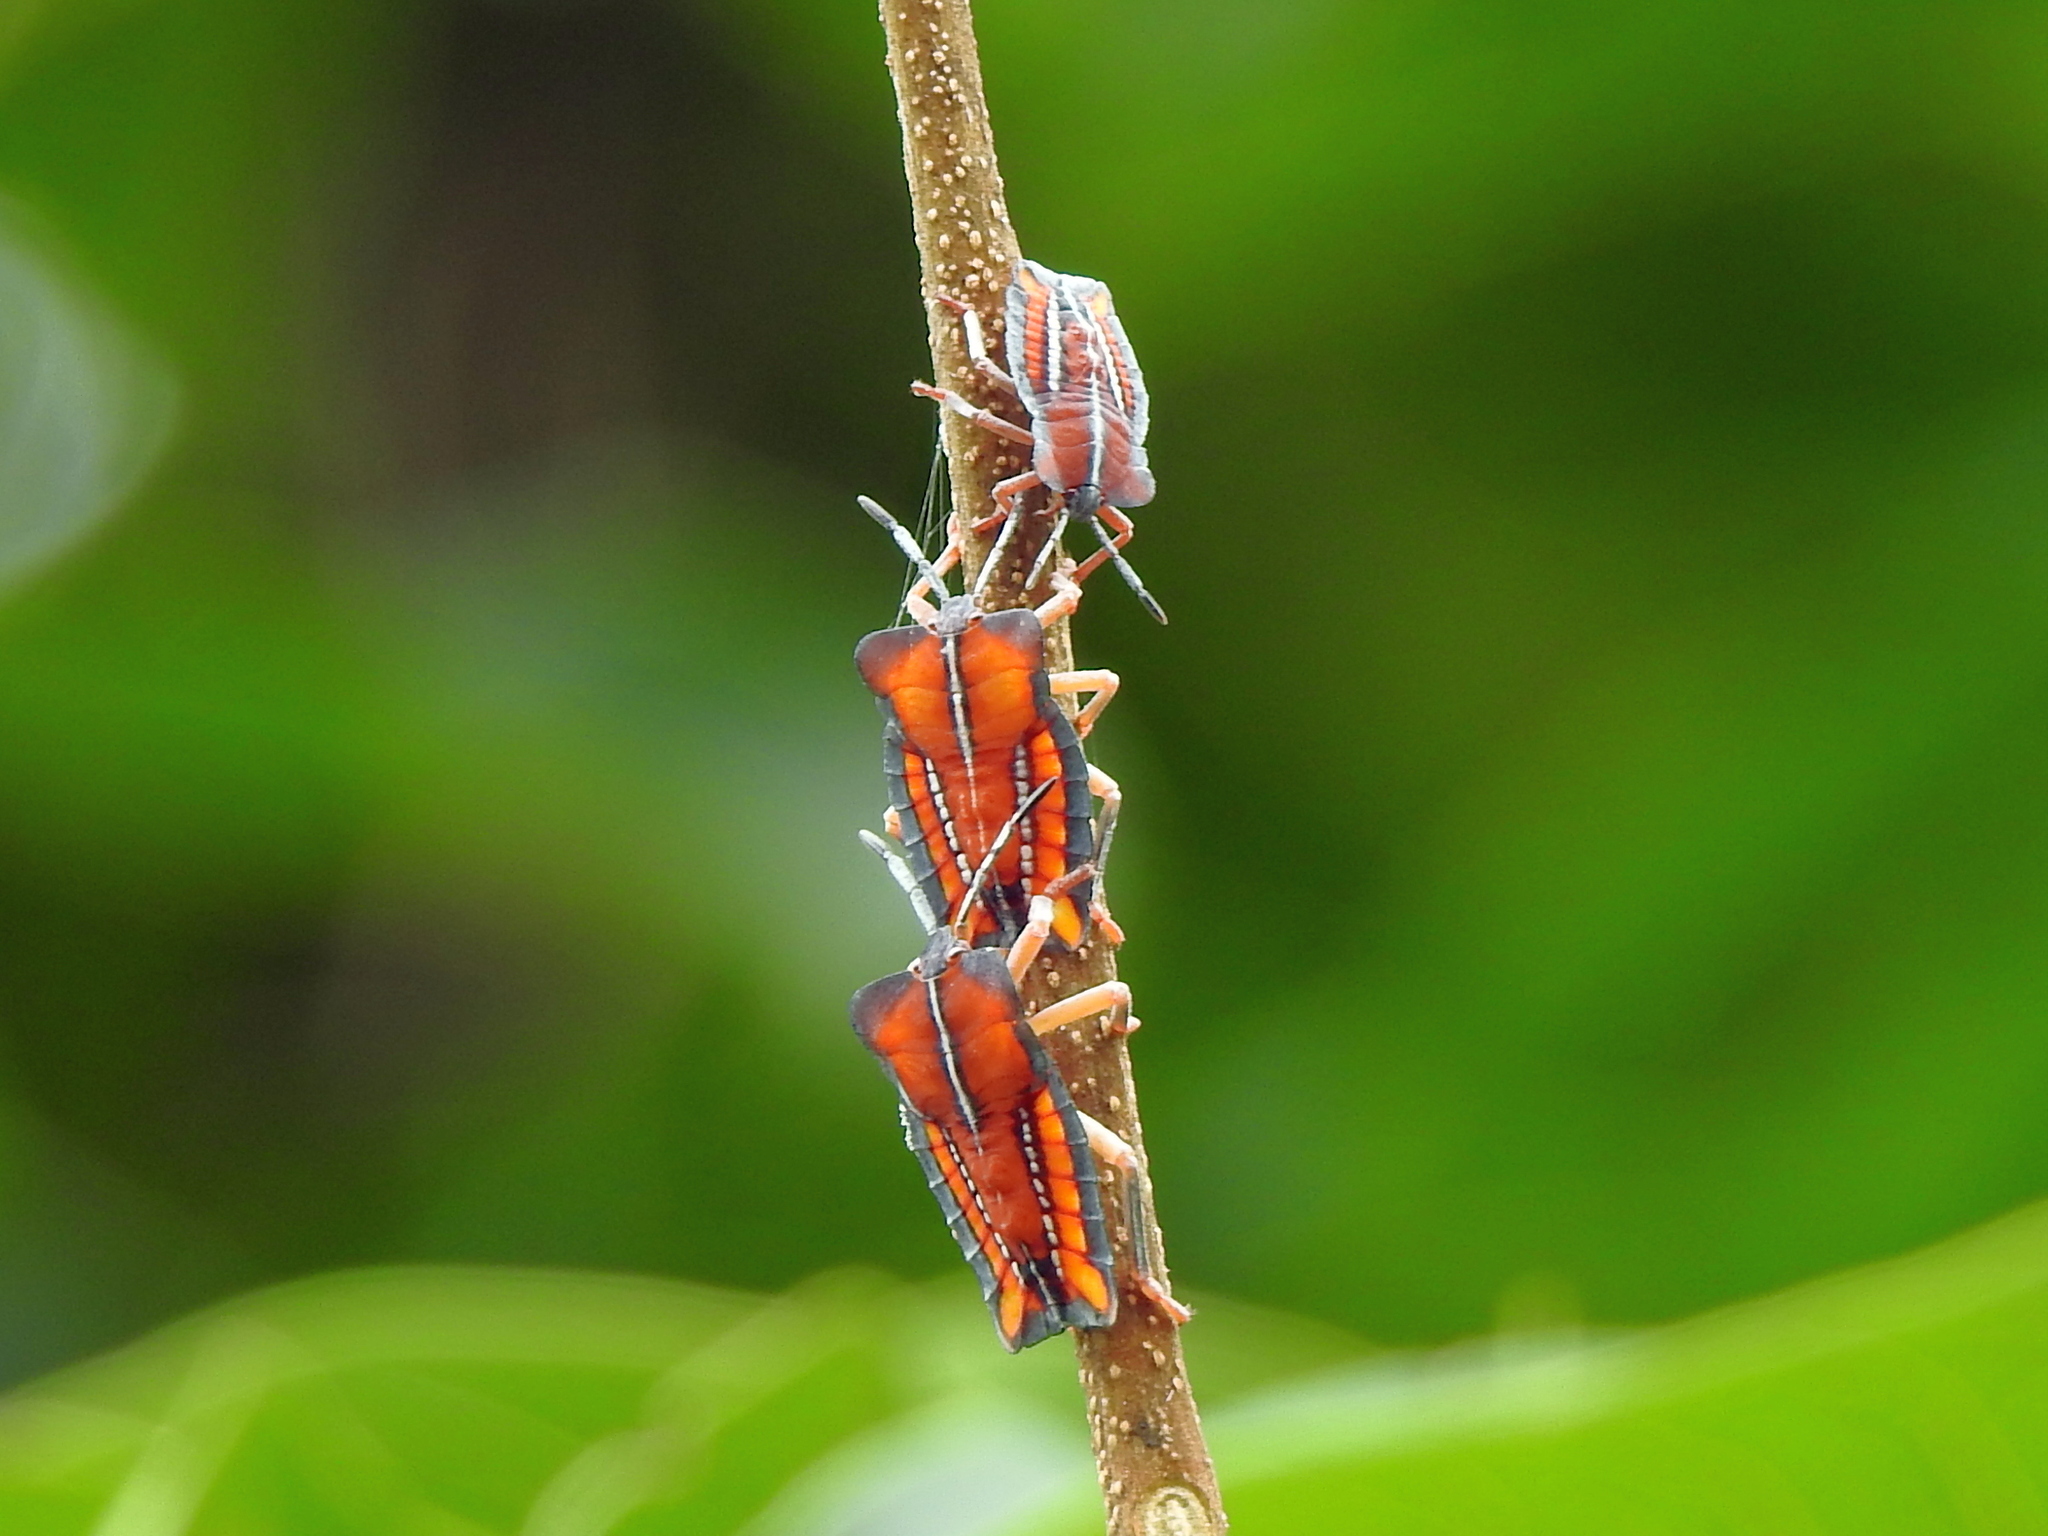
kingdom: Animalia
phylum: Arthropoda
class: Insecta
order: Hemiptera
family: Tessaratomidae
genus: Tessaratoma
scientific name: Tessaratoma papillosa
